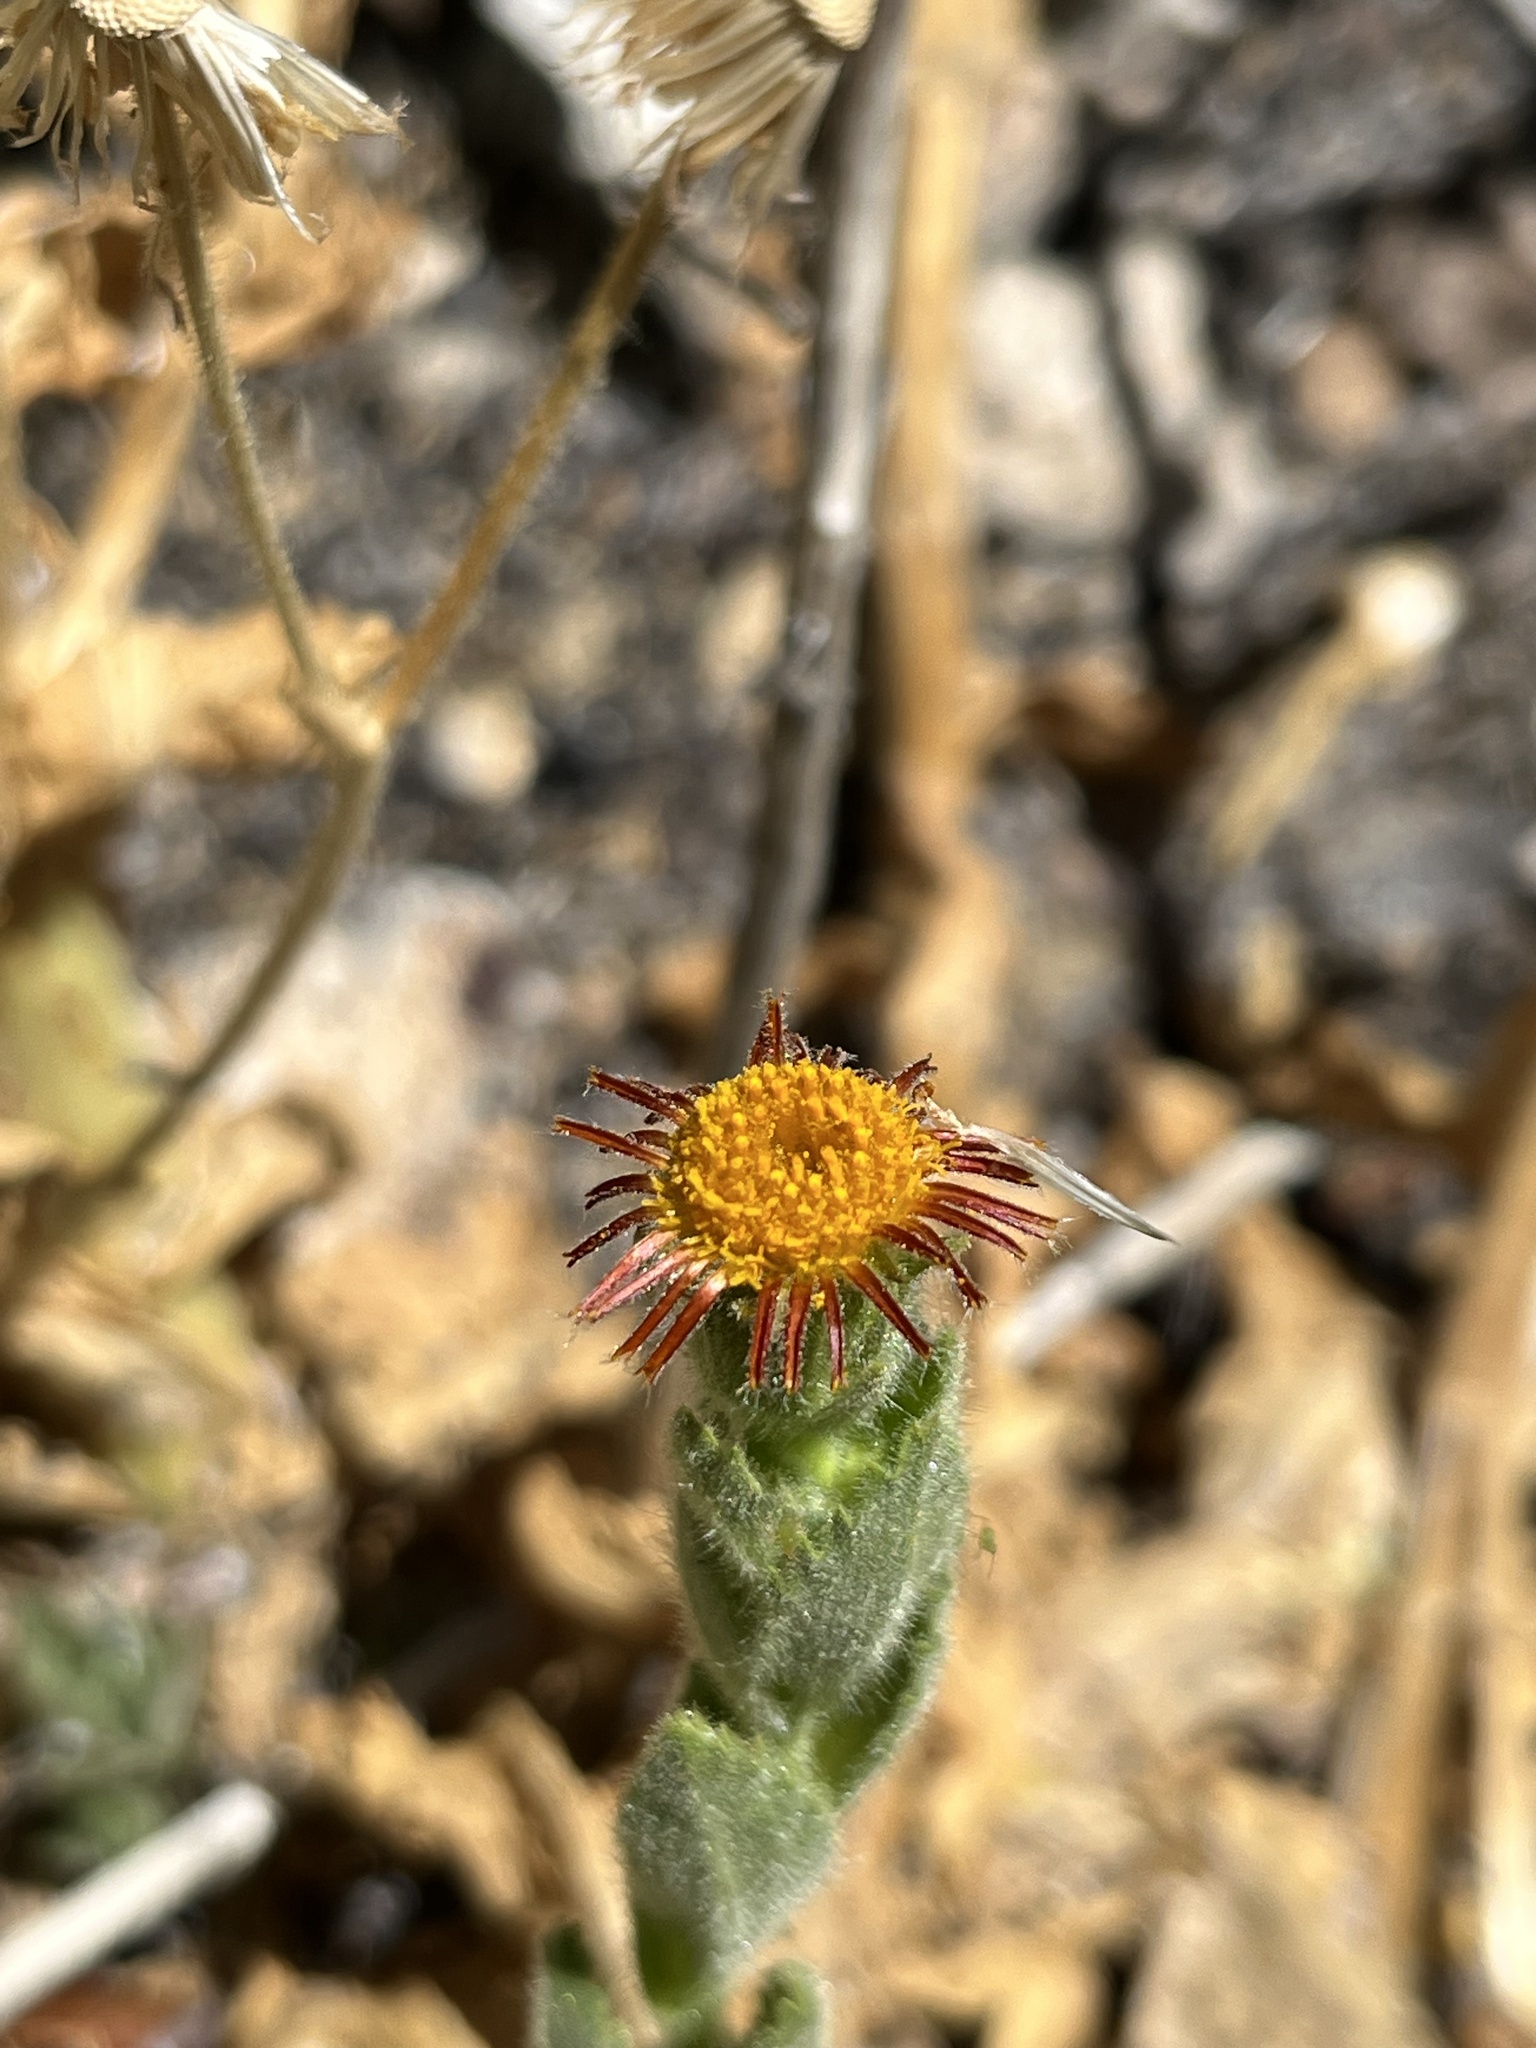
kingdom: Plantae
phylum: Tracheophyta
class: Magnoliopsida
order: Asterales
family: Asteraceae
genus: Hulsea
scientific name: Hulsea heterochroma
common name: Redray alpinegold
